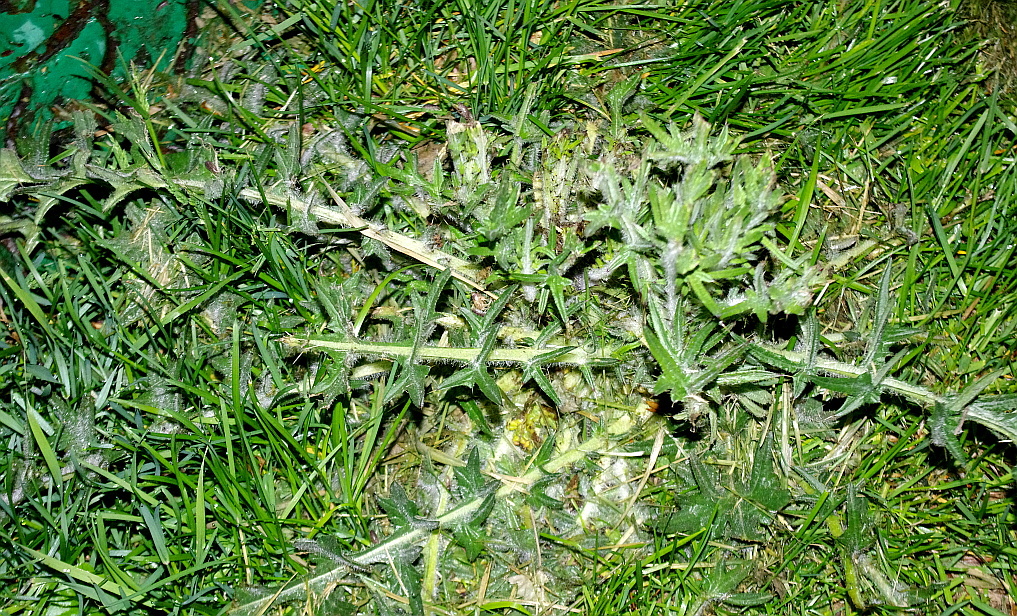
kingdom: Plantae
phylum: Tracheophyta
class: Magnoliopsida
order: Asterales
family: Asteraceae
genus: Cirsium
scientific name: Cirsium vulgare
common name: Bull thistle
